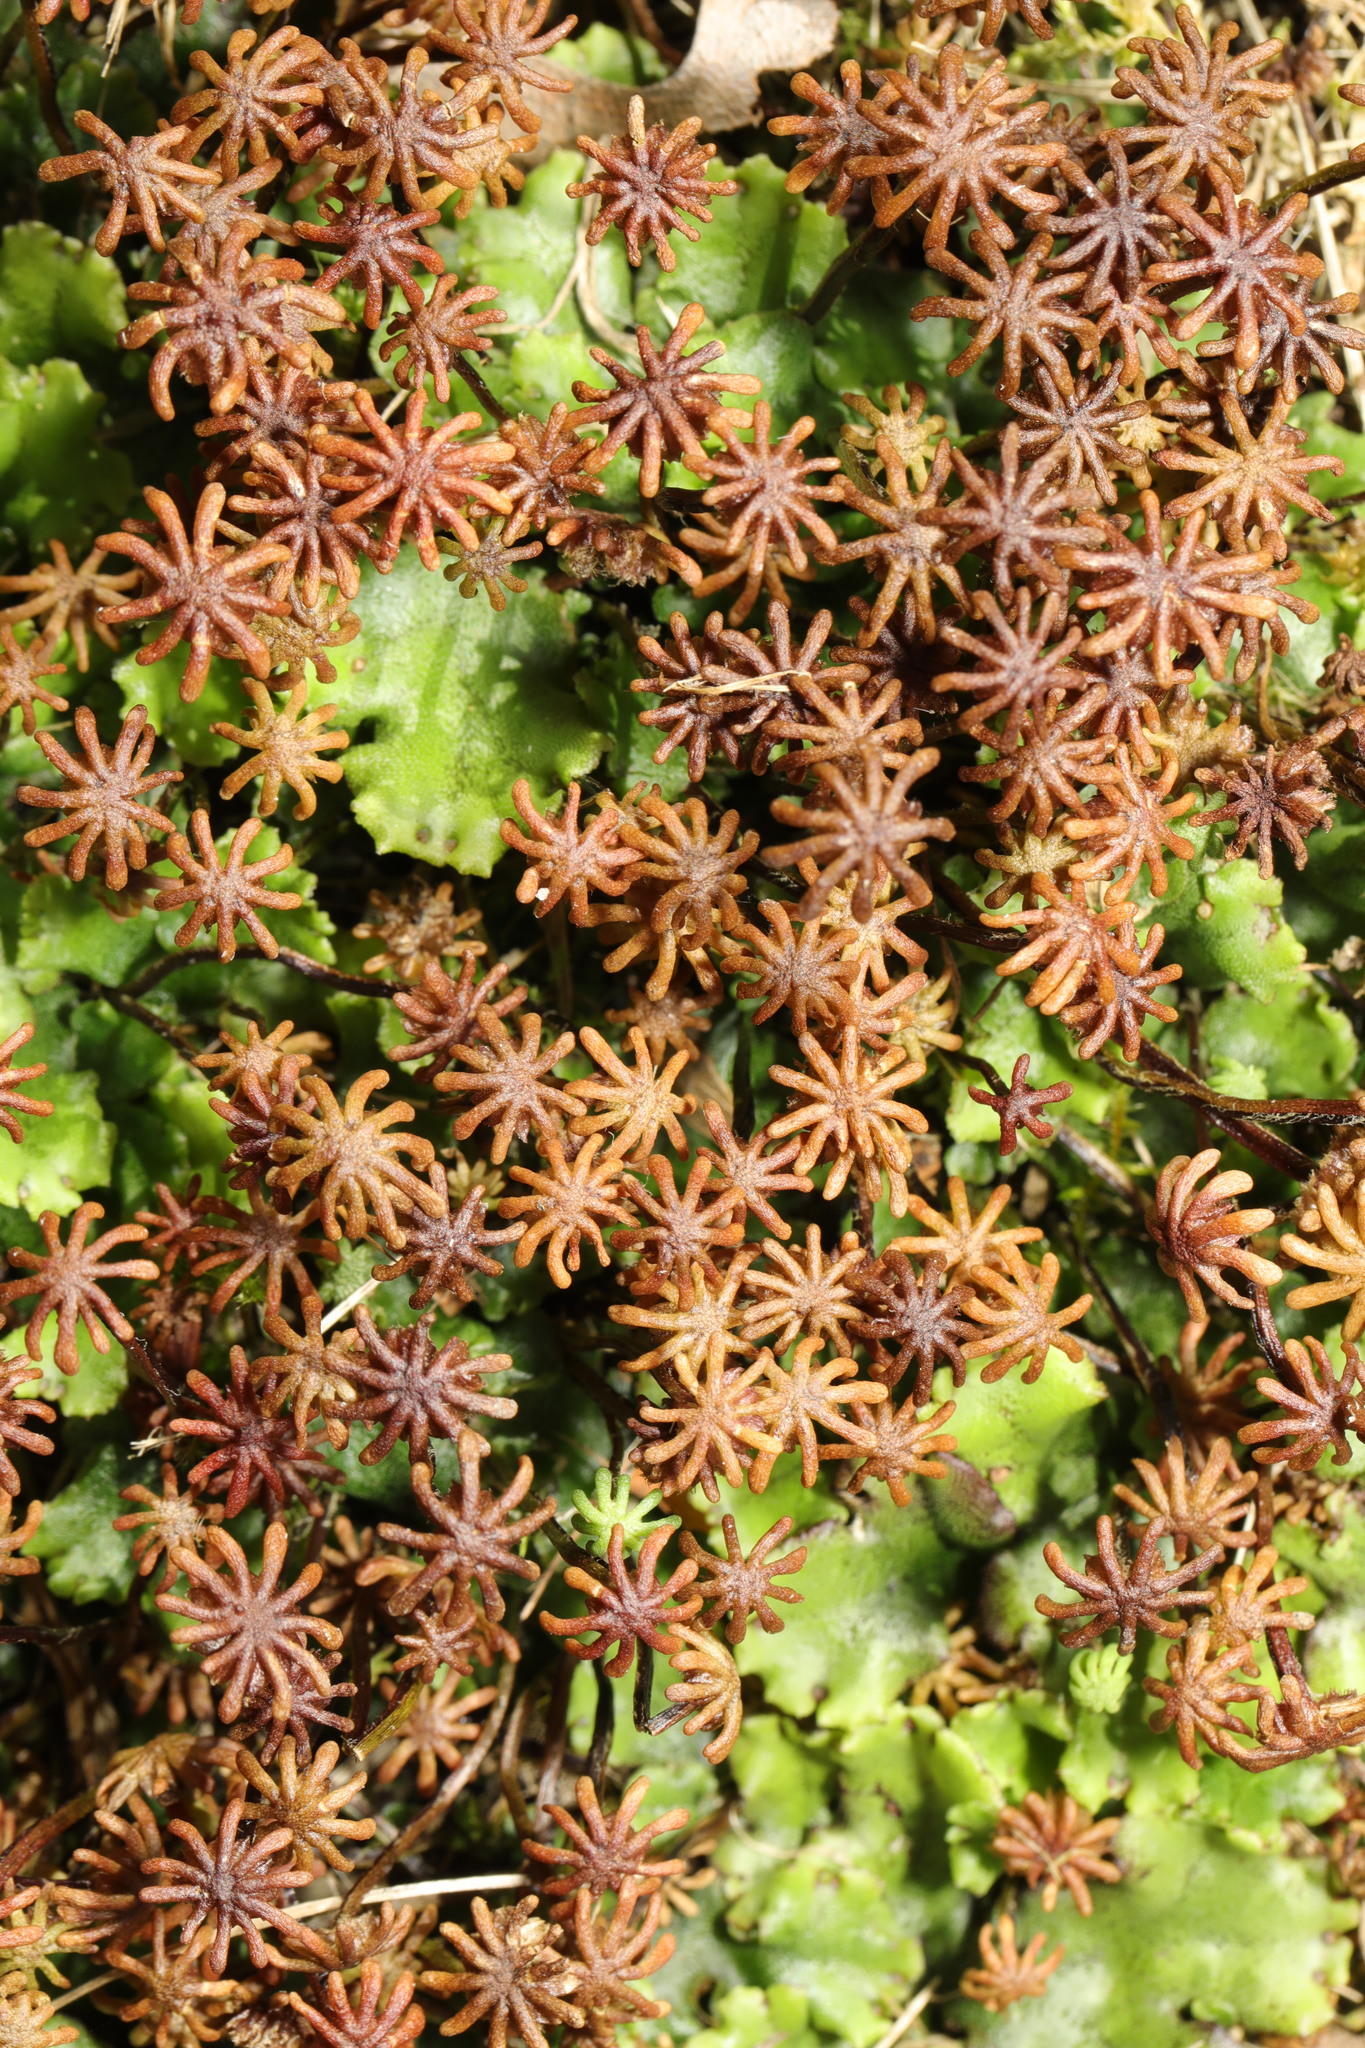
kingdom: Plantae
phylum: Marchantiophyta
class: Marchantiopsida
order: Marchantiales
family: Marchantiaceae
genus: Marchantia
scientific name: Marchantia polymorpha
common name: Common liverwort
